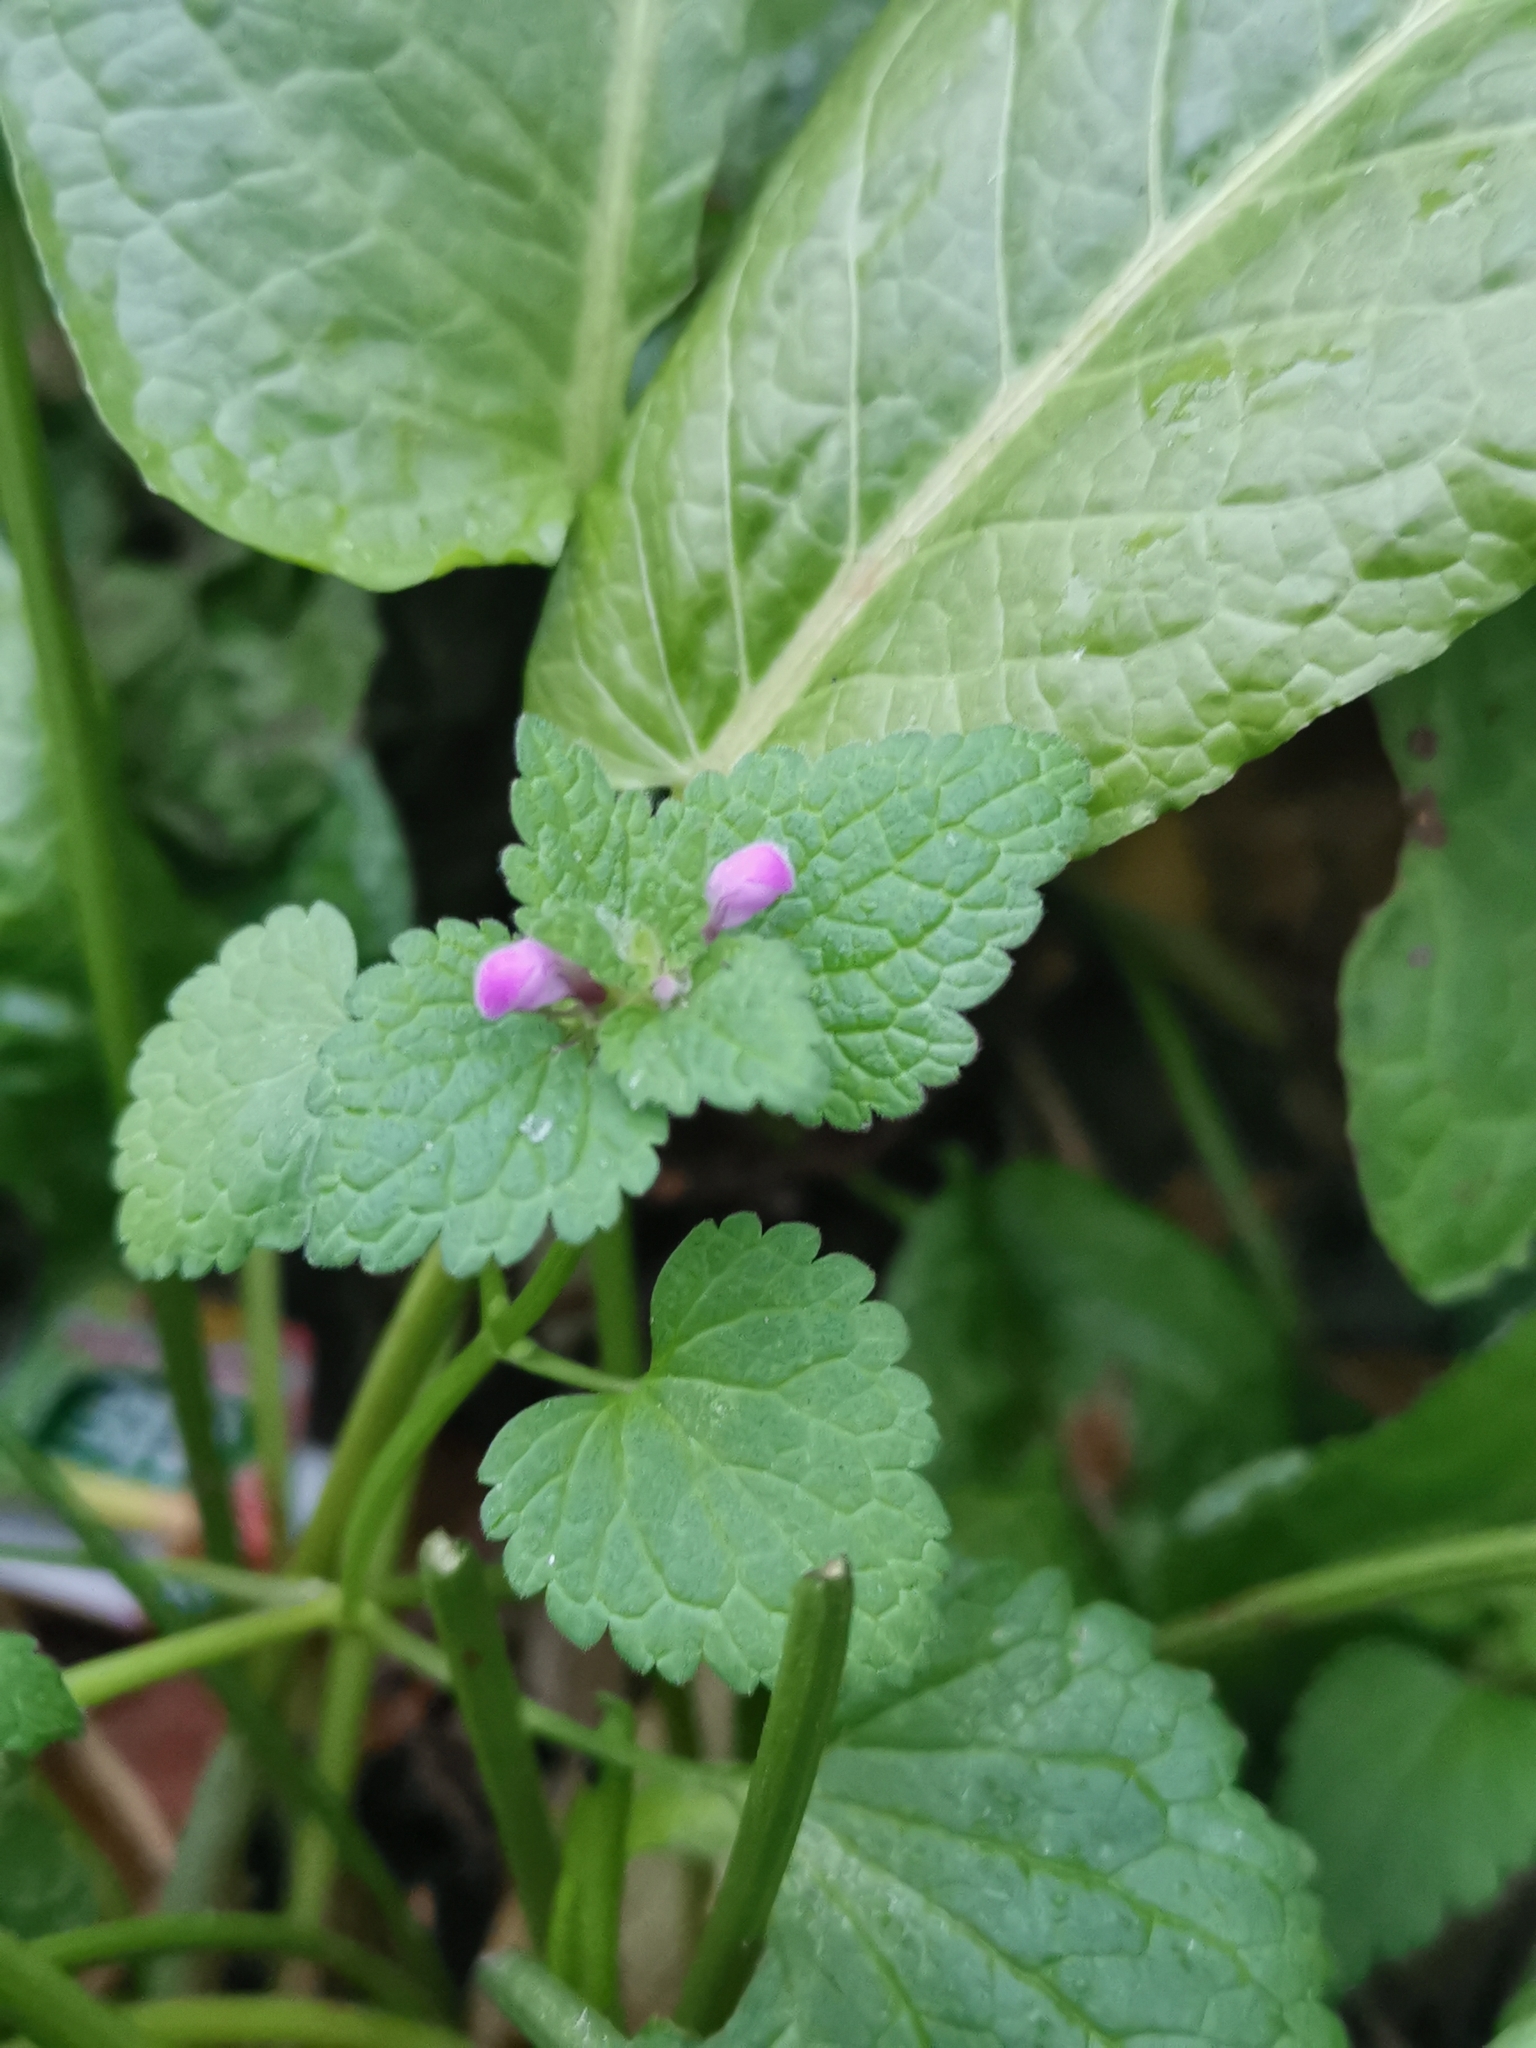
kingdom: Plantae
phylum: Tracheophyta
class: Magnoliopsida
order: Lamiales
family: Lamiaceae
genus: Lamium
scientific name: Lamium purpureum
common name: Red dead-nettle
